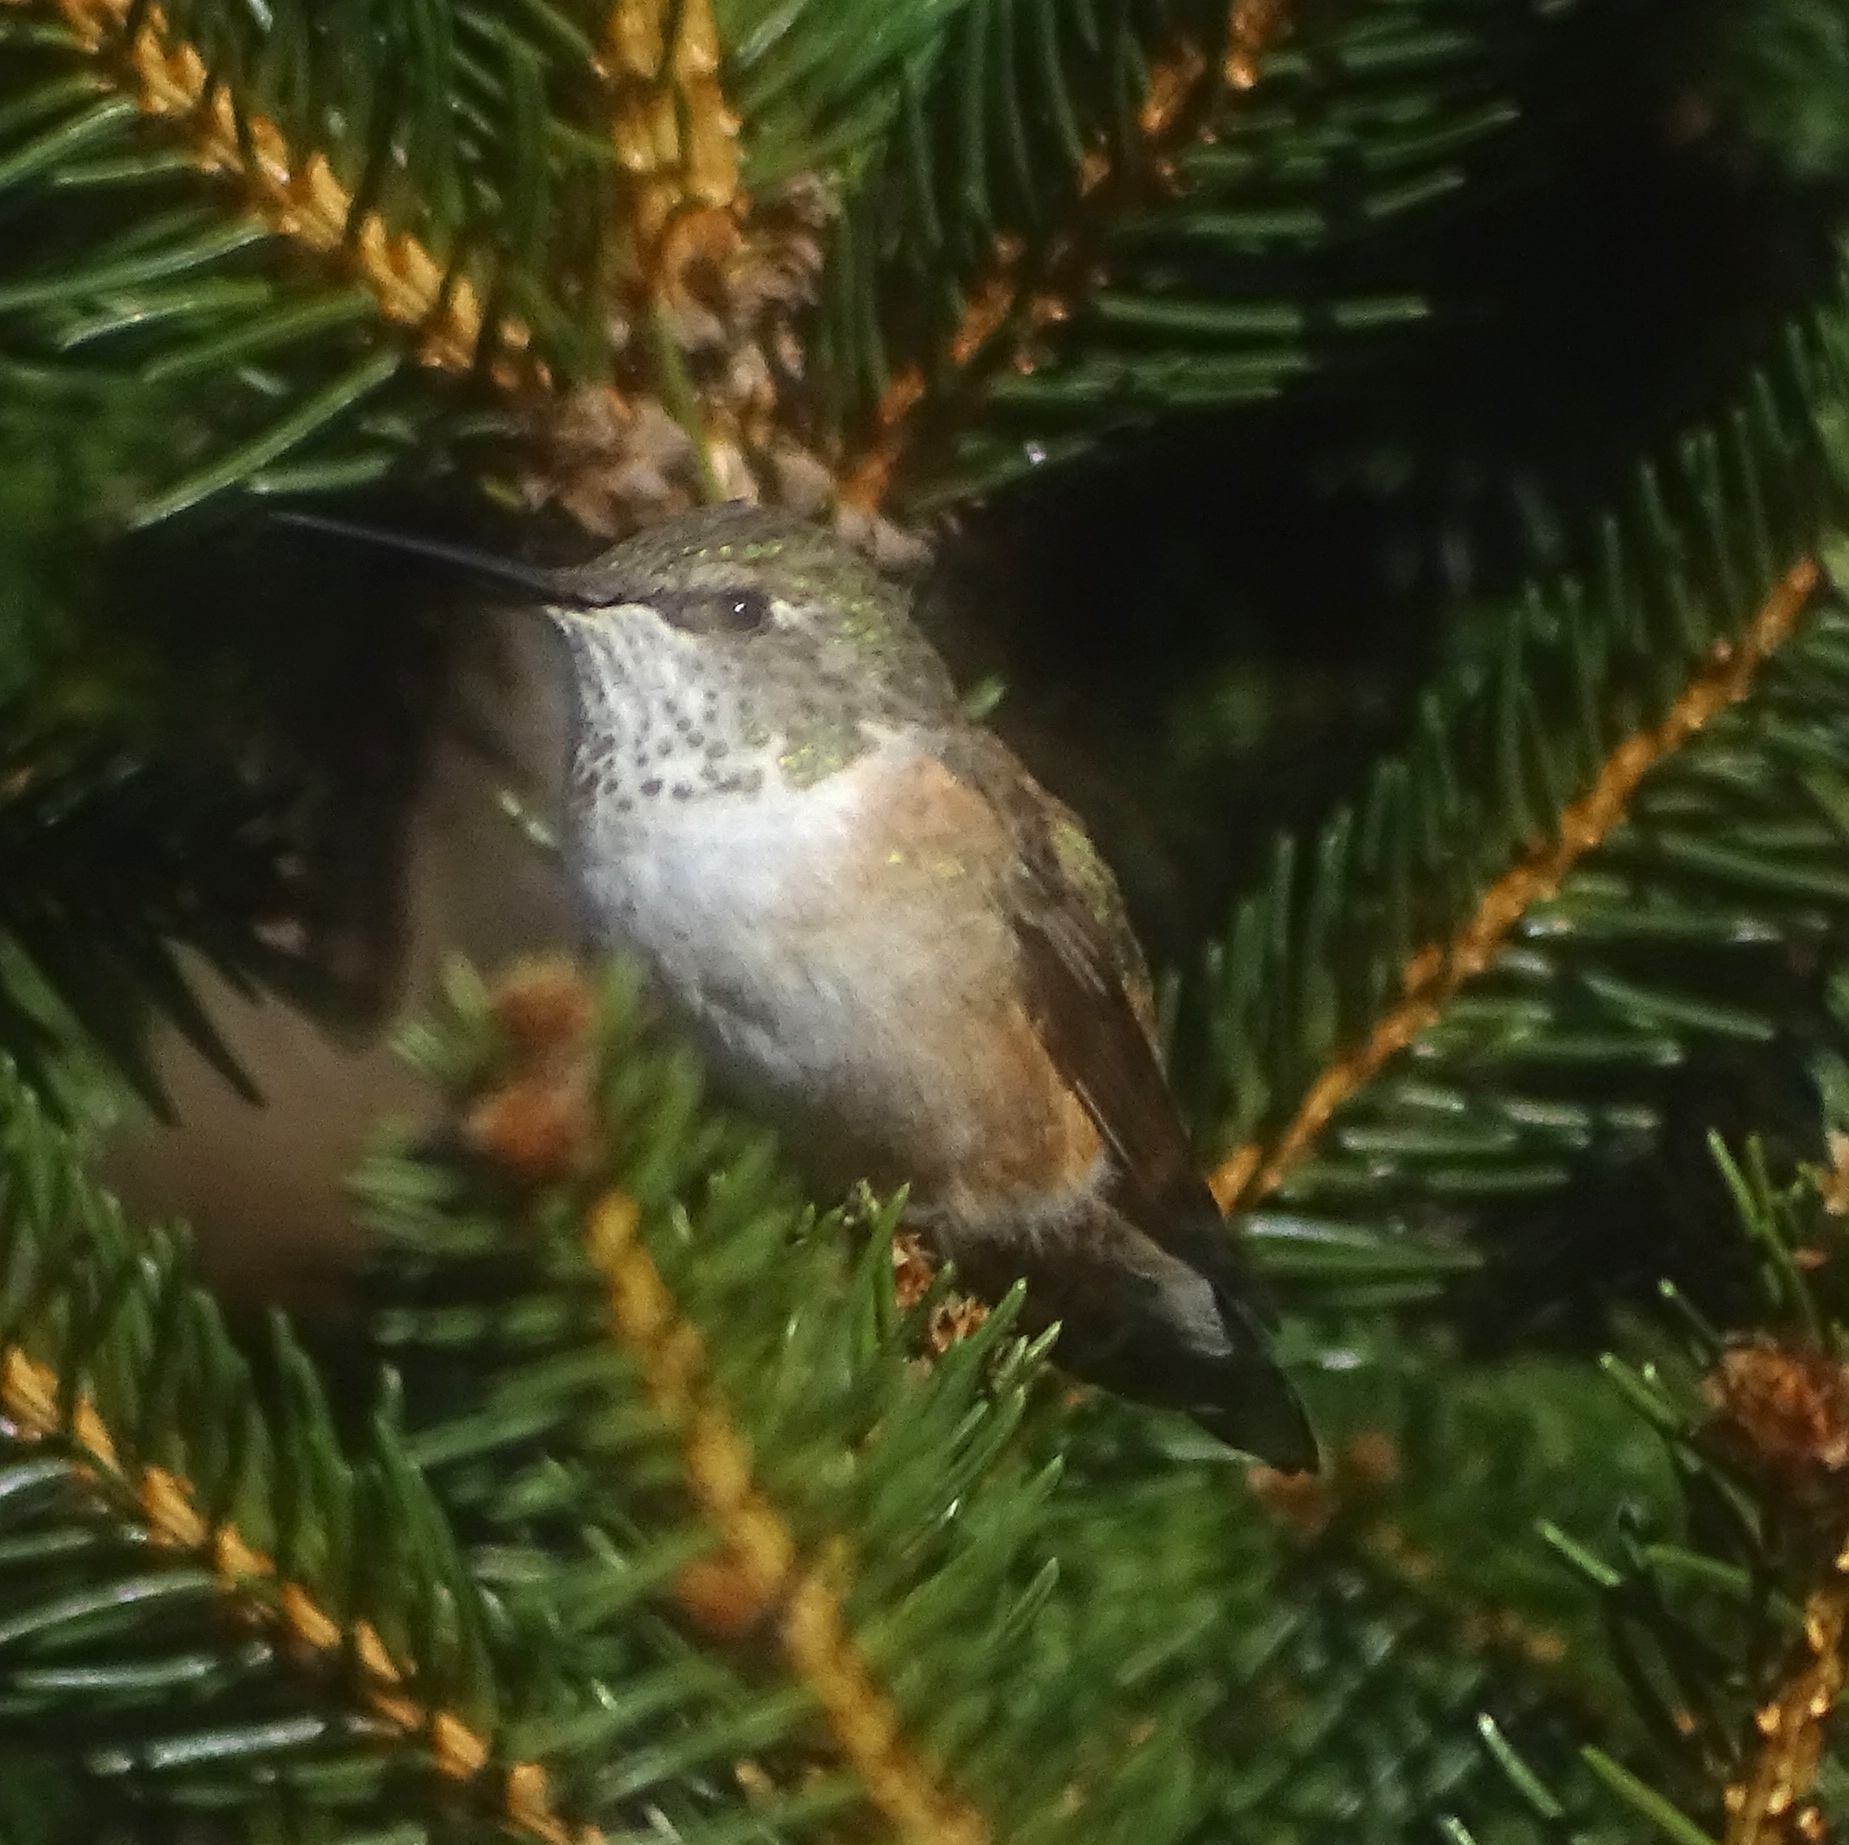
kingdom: Animalia
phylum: Chordata
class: Aves
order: Apodiformes
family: Trochilidae
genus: Selasphorus
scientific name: Selasphorus rufus
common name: Rufous hummingbird
